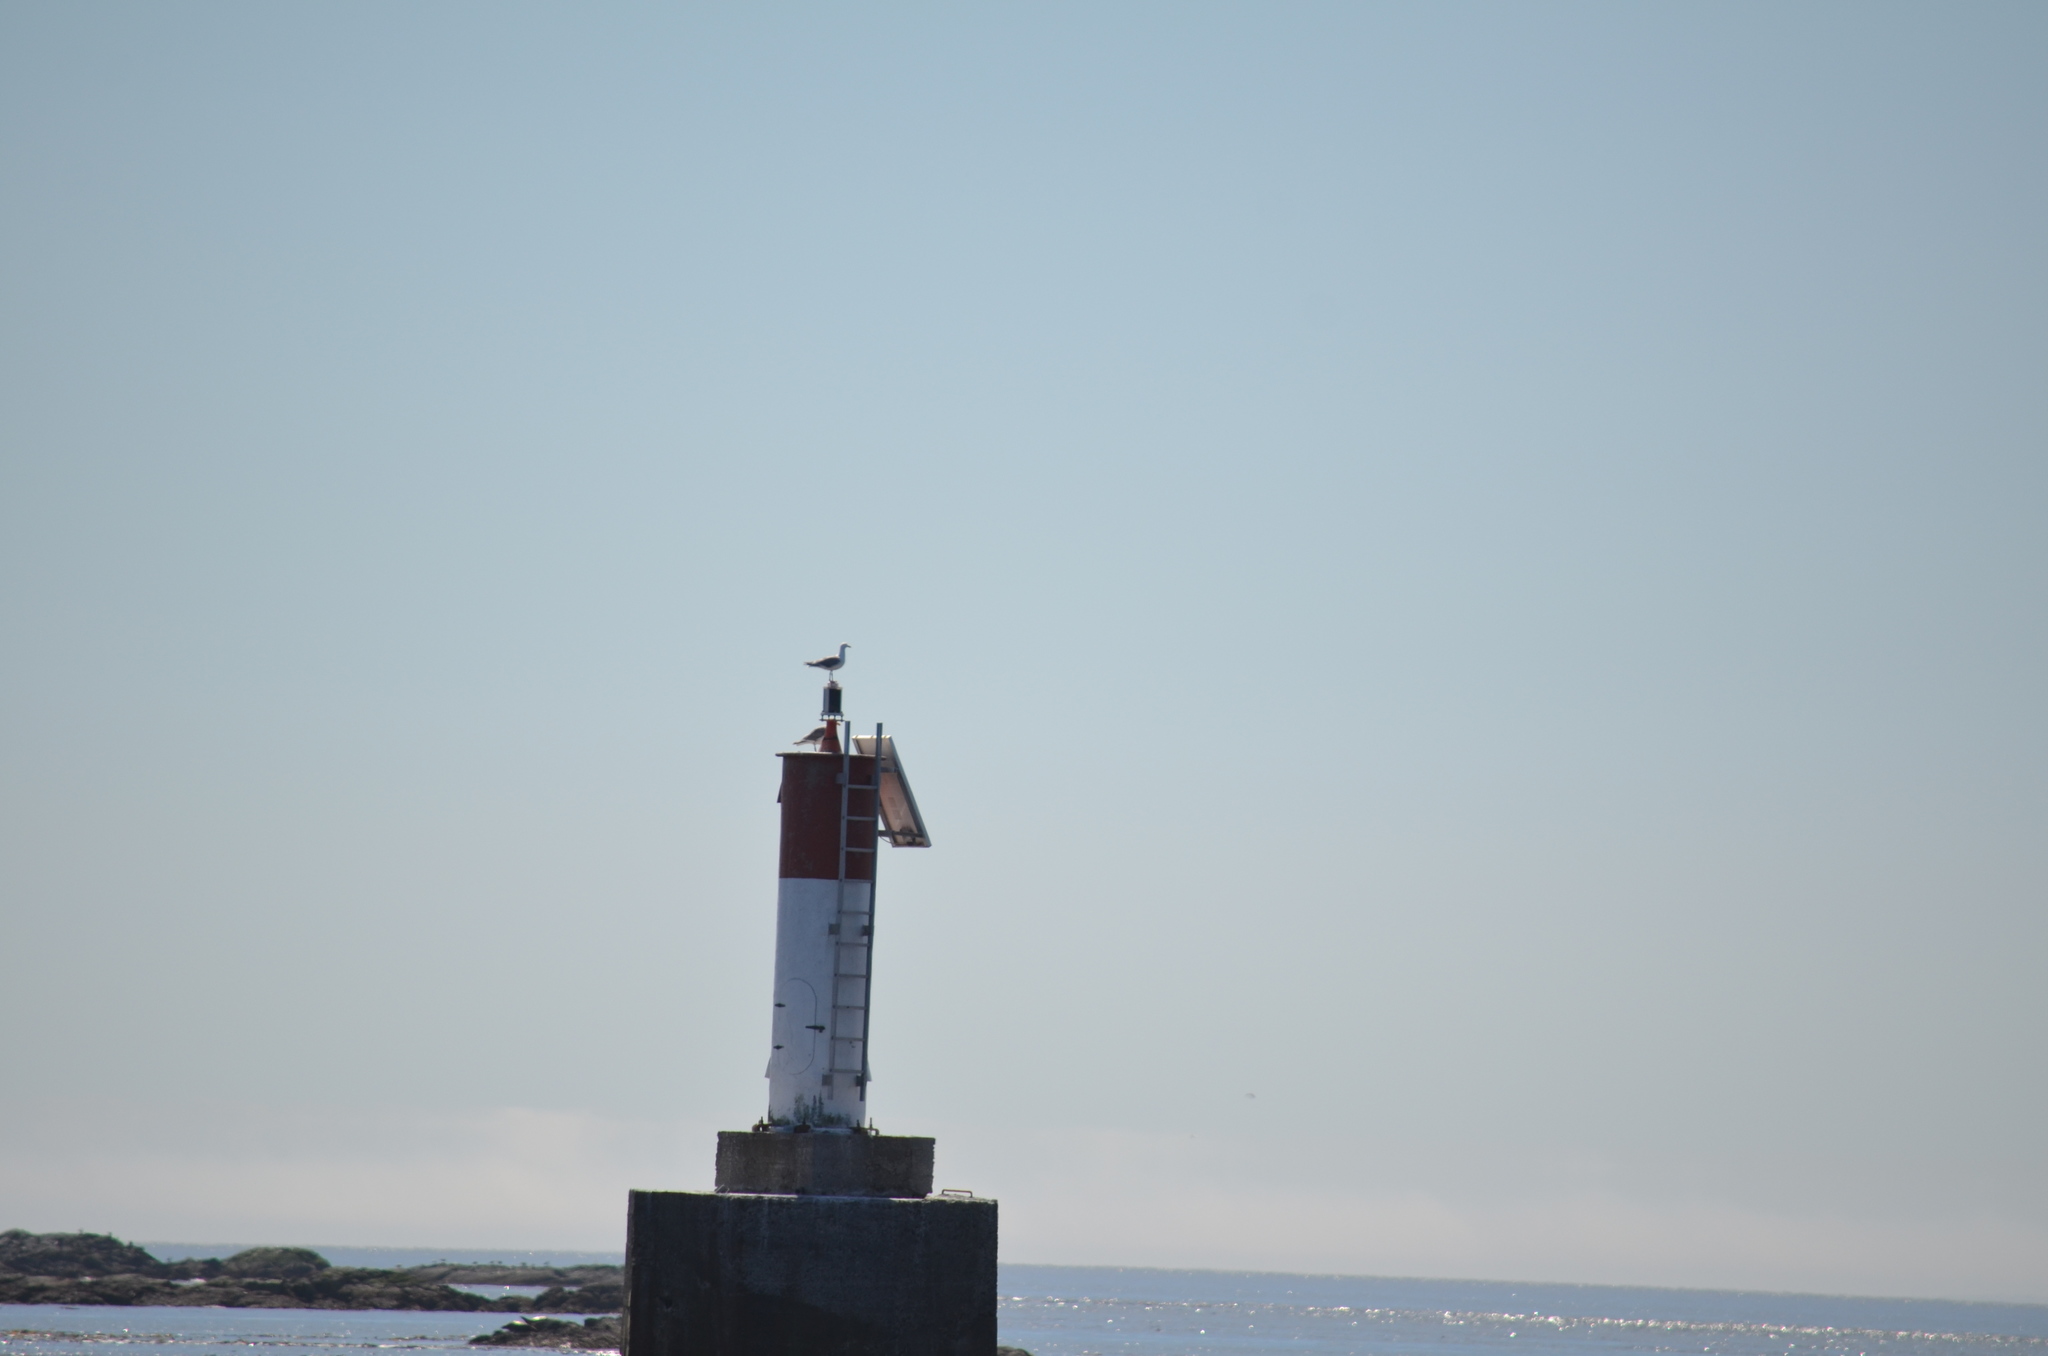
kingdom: Animalia
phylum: Chordata
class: Aves
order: Charadriiformes
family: Laridae
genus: Larus
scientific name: Larus glaucescens
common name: Glaucous-winged gull
